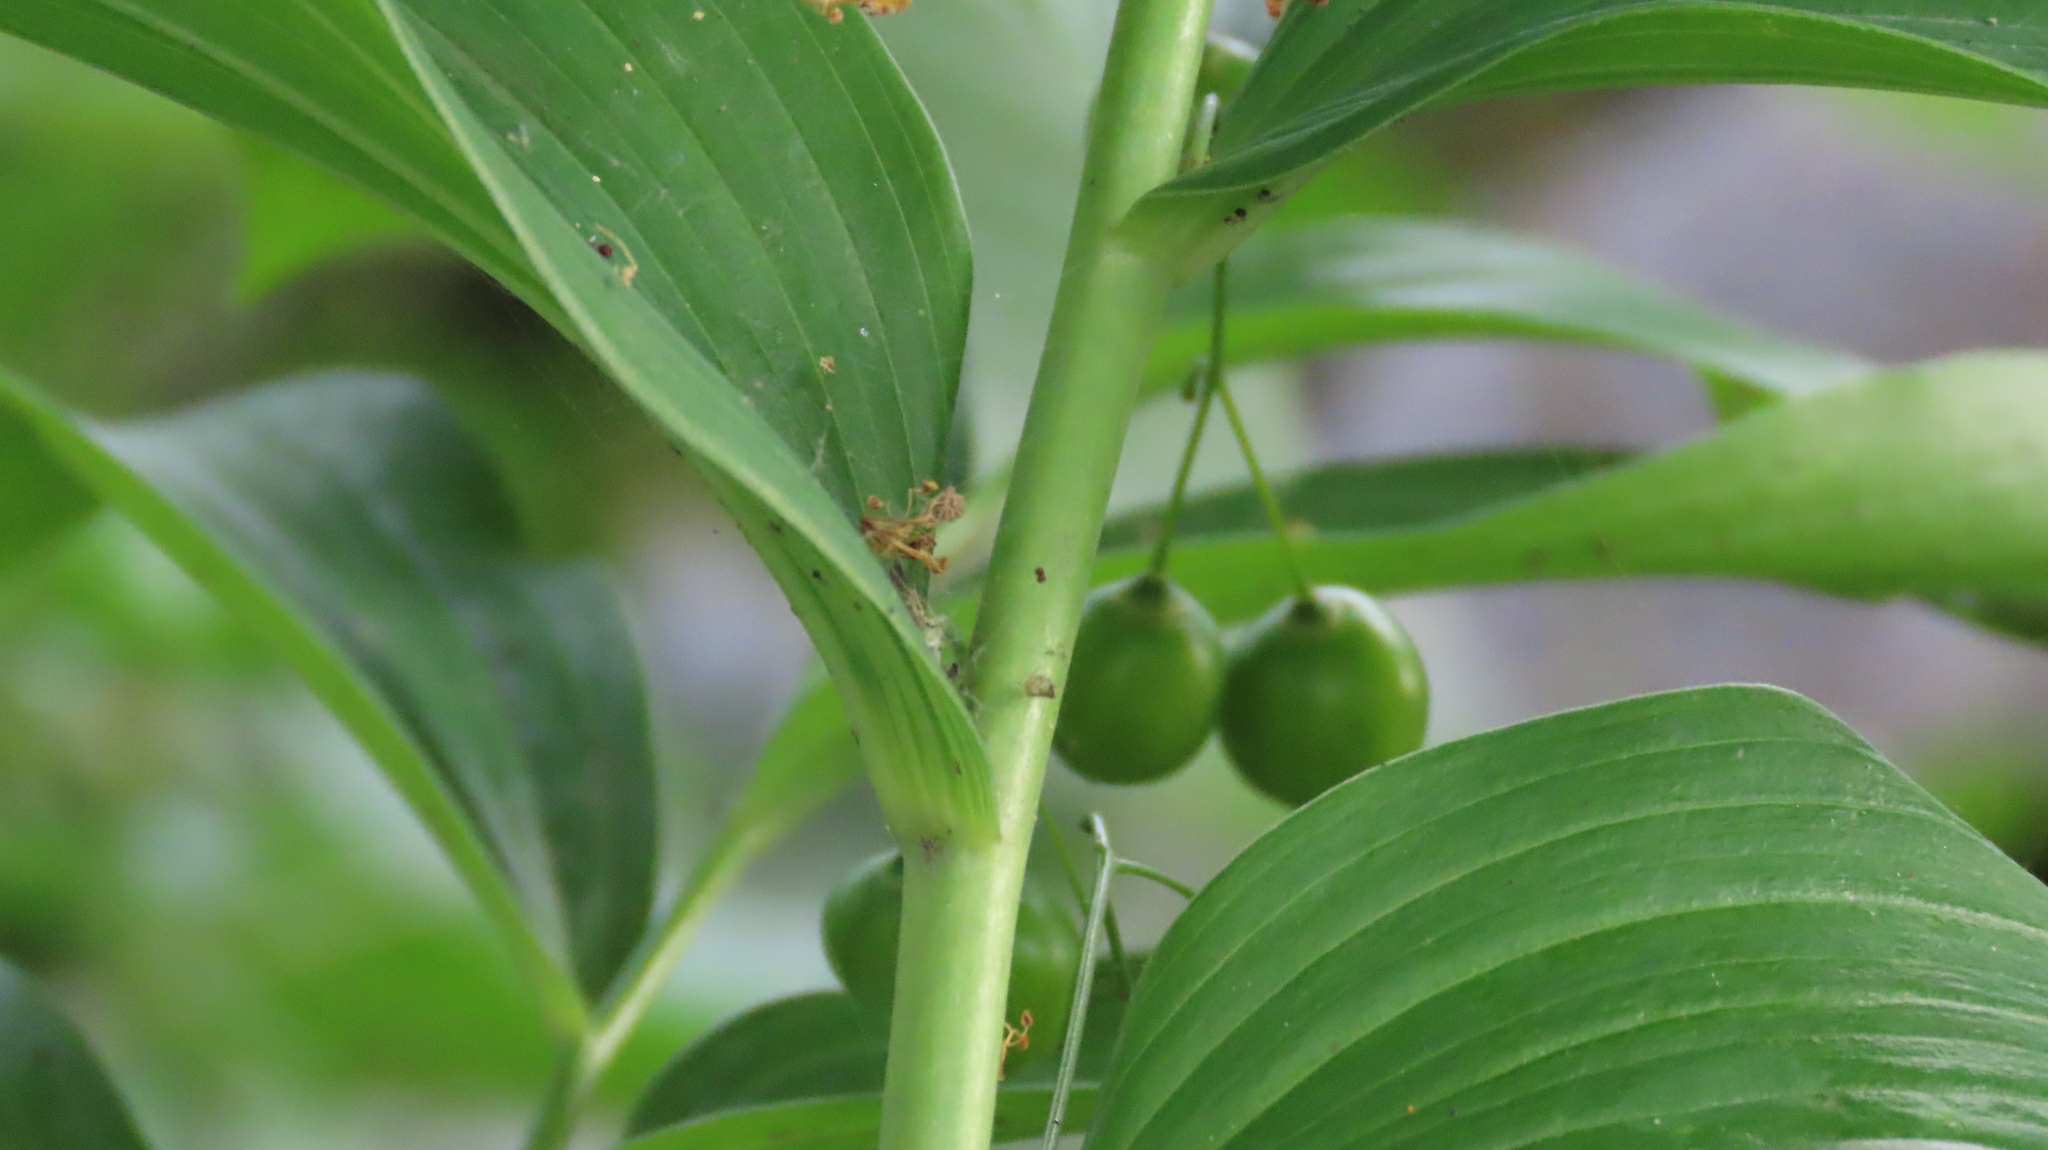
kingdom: Plantae
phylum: Tracheophyta
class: Liliopsida
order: Asparagales
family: Asparagaceae
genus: Polygonatum
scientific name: Polygonatum biflorum
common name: American solomon's-seal
